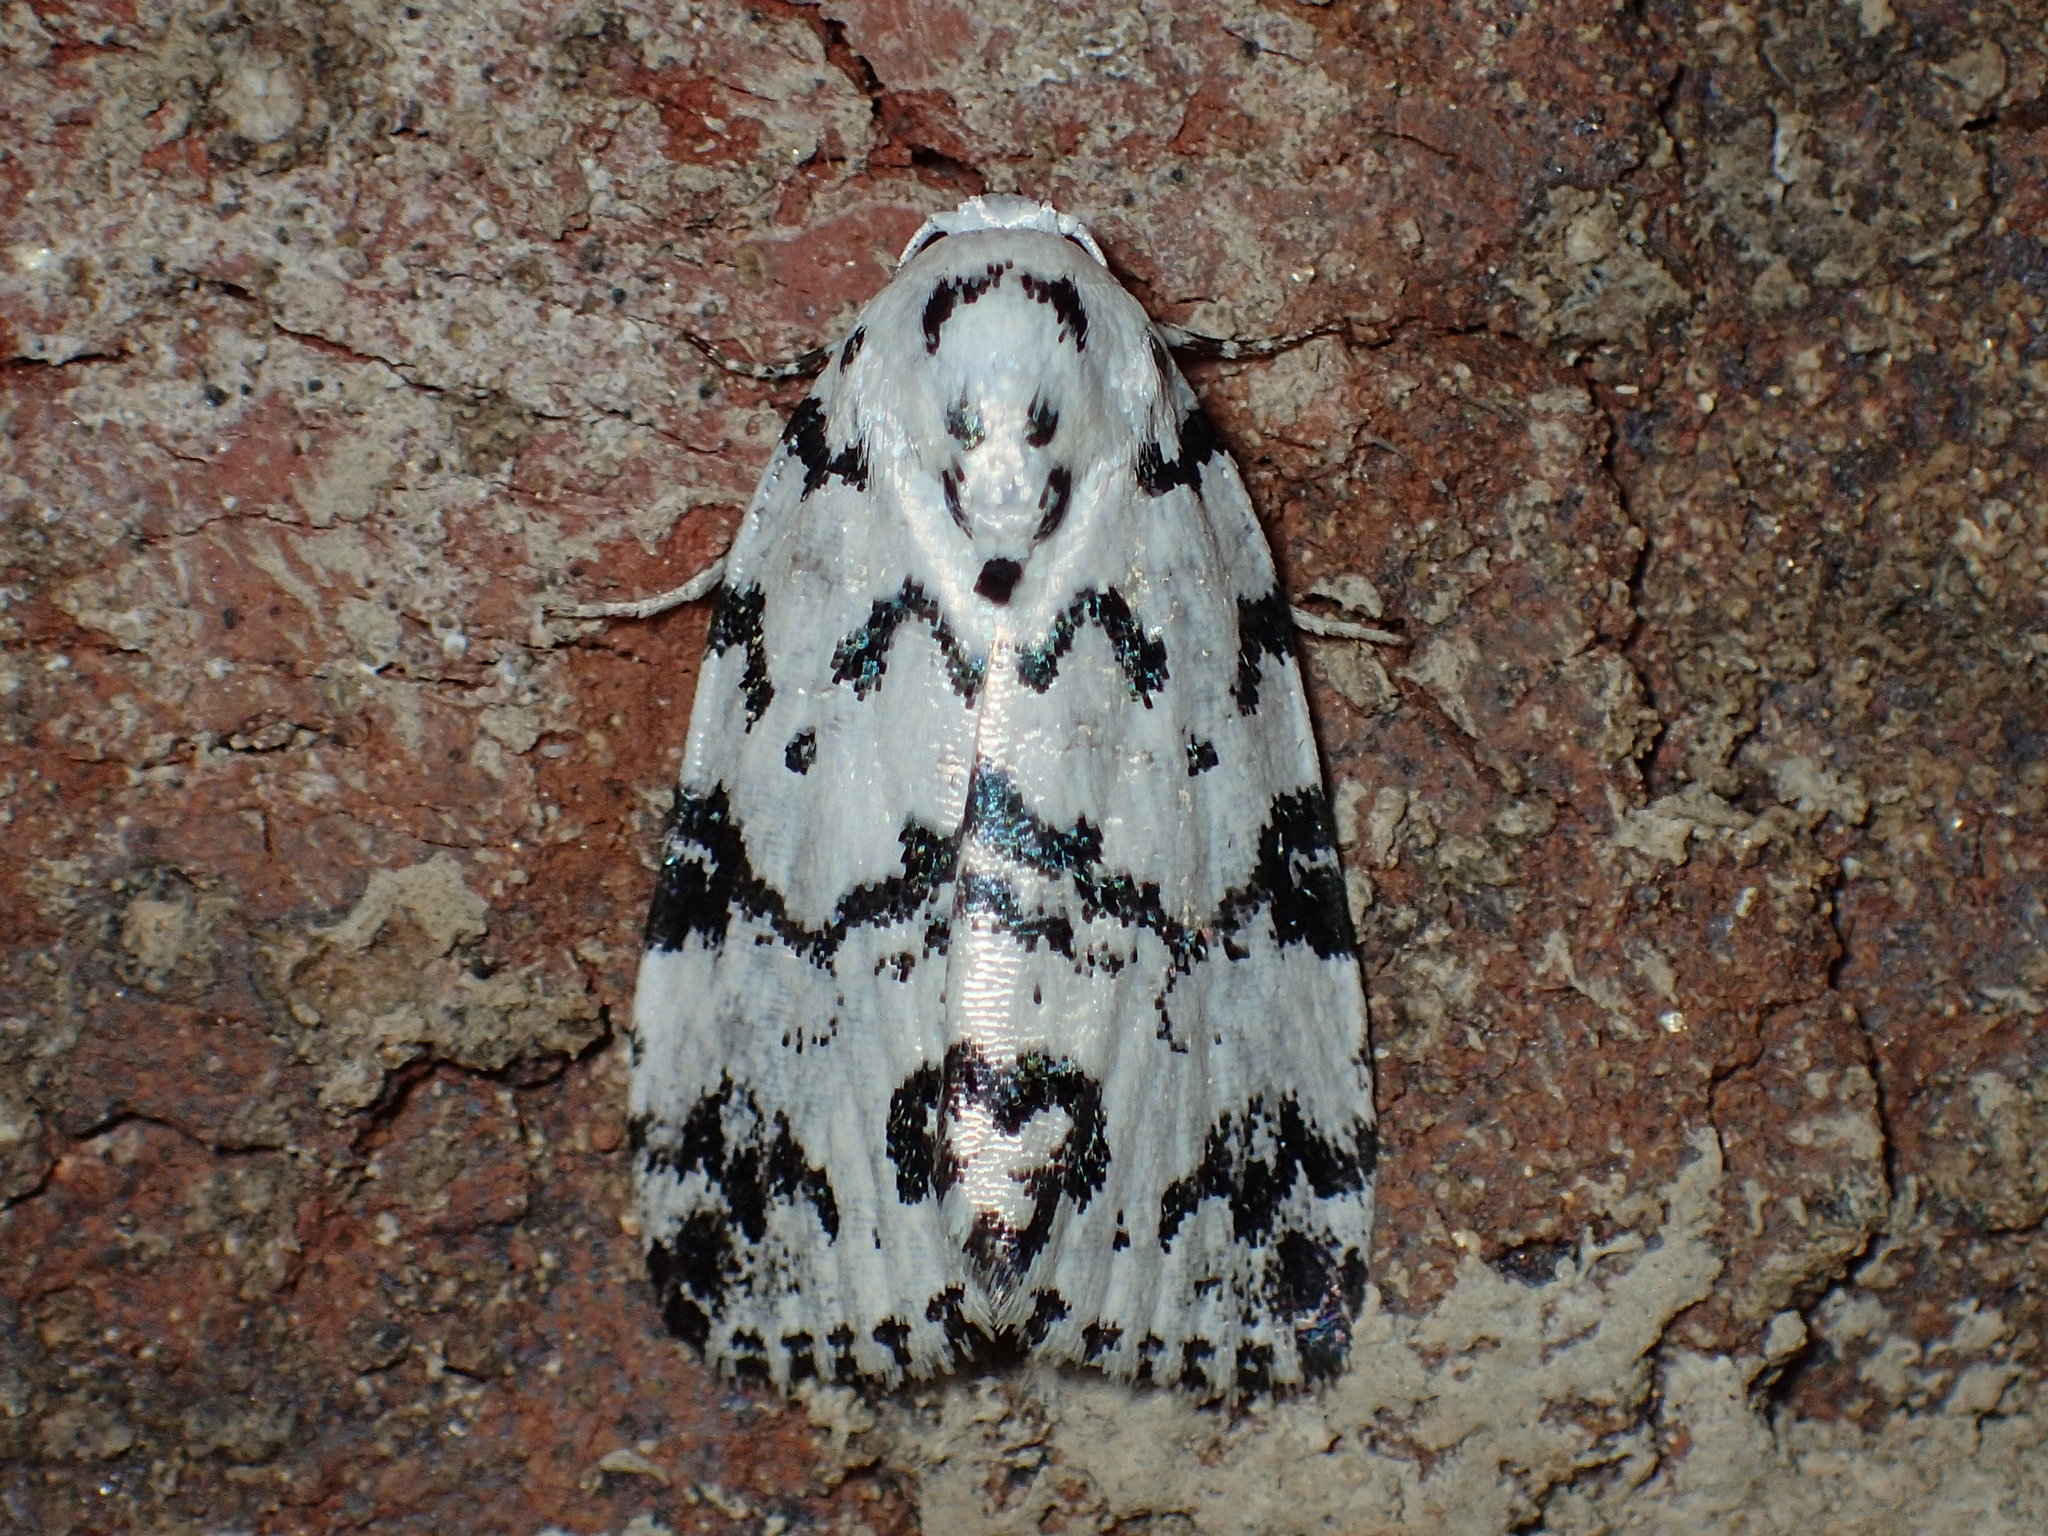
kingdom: Animalia
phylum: Arthropoda
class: Insecta
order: Lepidoptera
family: Noctuidae
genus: Polygrammate
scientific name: Polygrammate hebraeicum
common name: Hebrew moth
